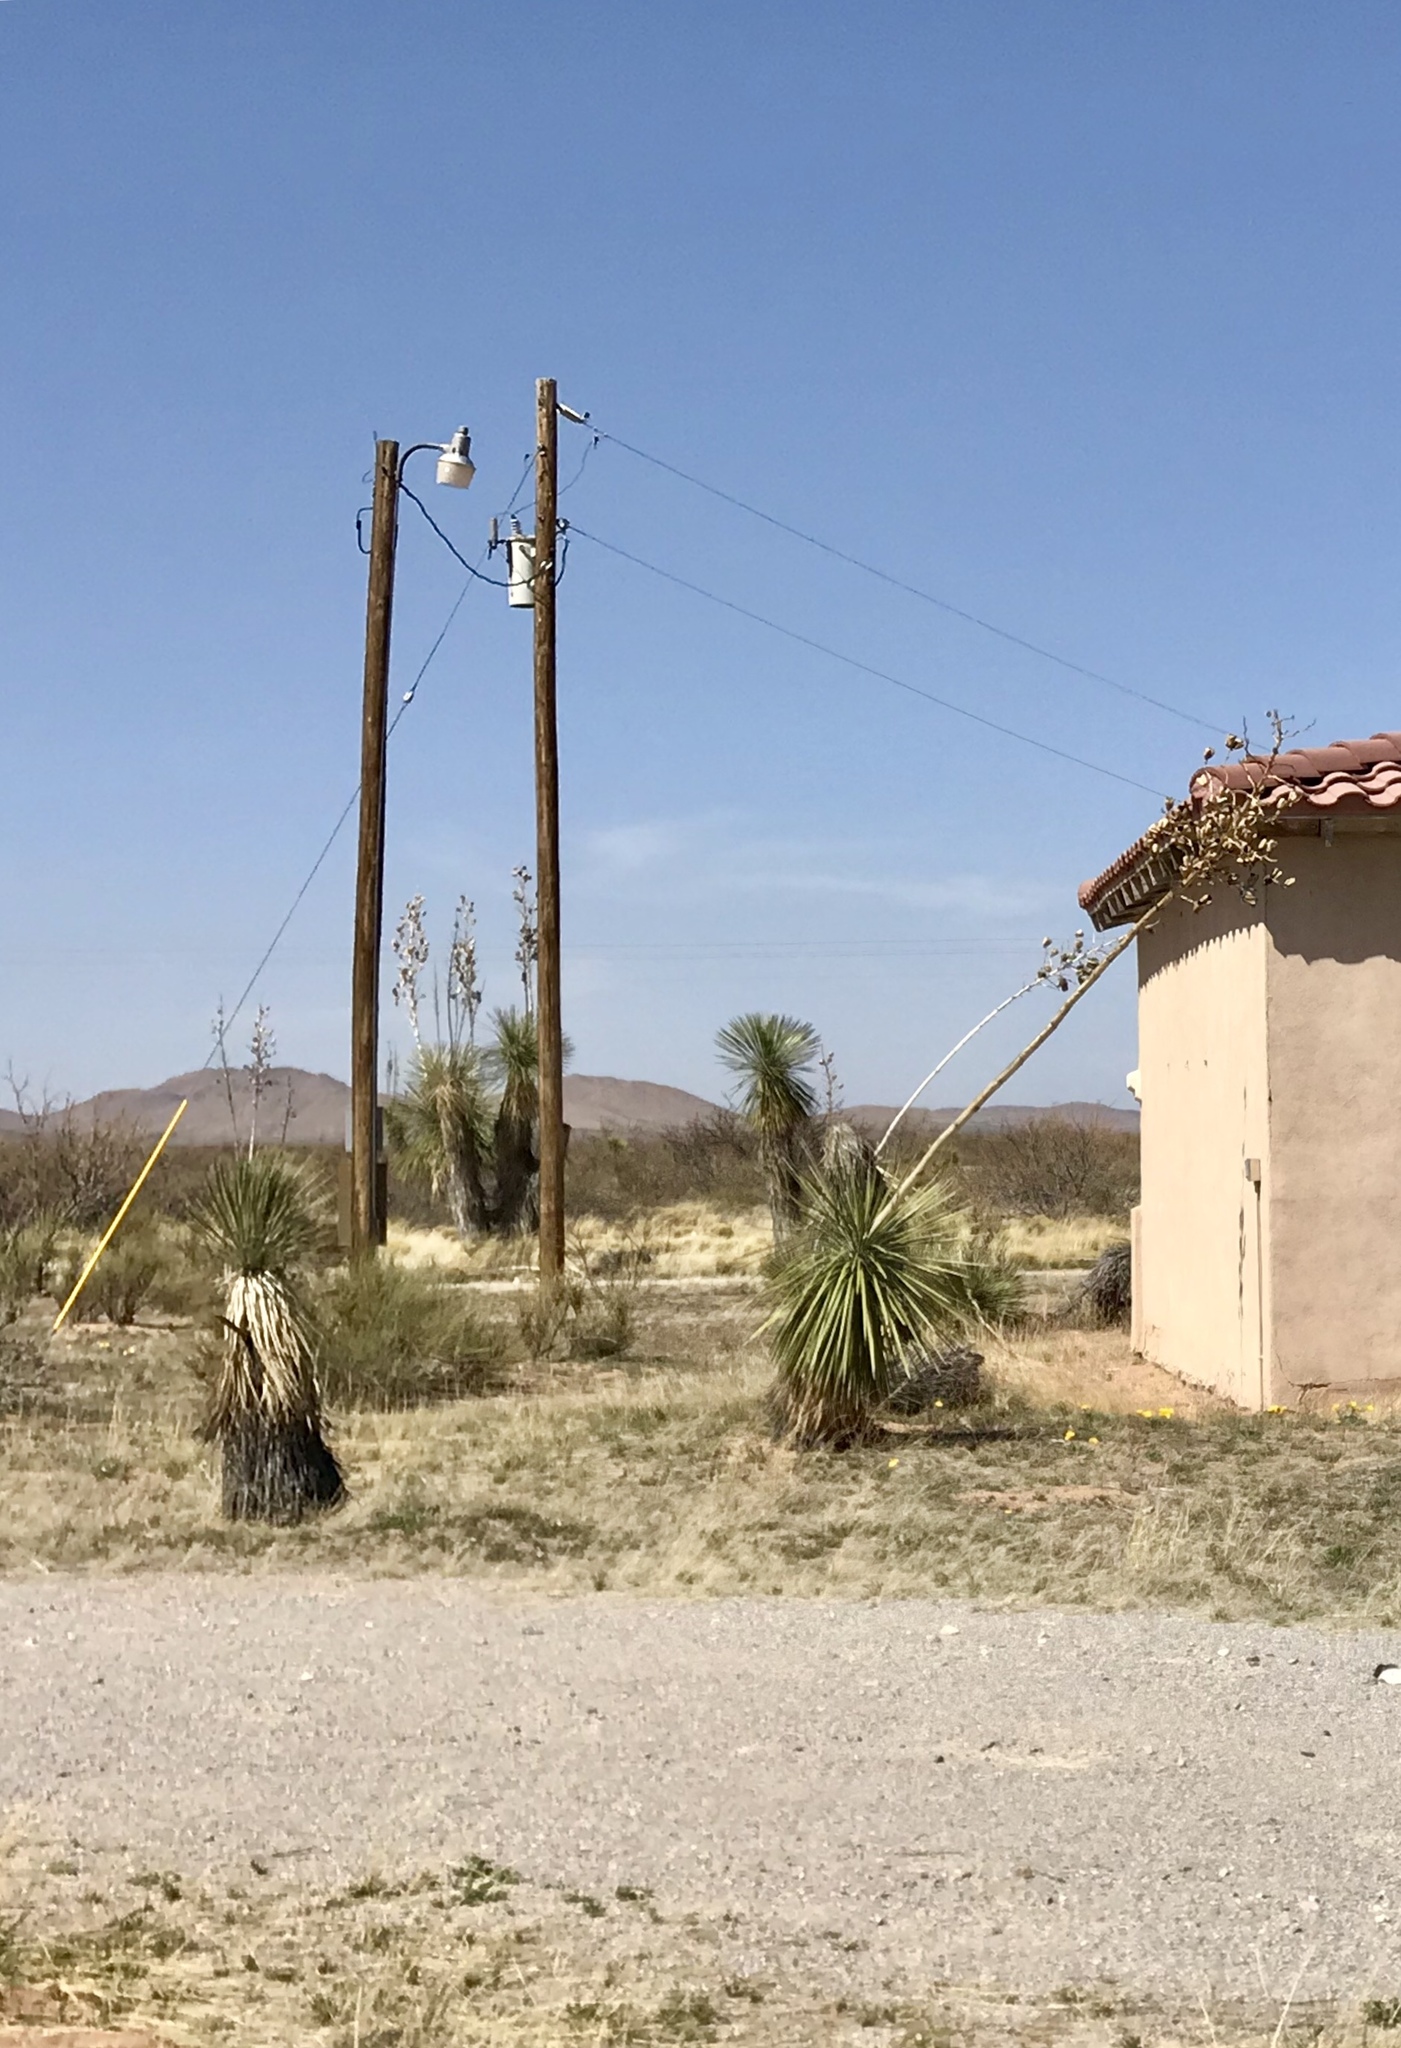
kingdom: Plantae
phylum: Tracheophyta
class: Liliopsida
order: Asparagales
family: Asparagaceae
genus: Yucca
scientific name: Yucca elata
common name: Palmella
